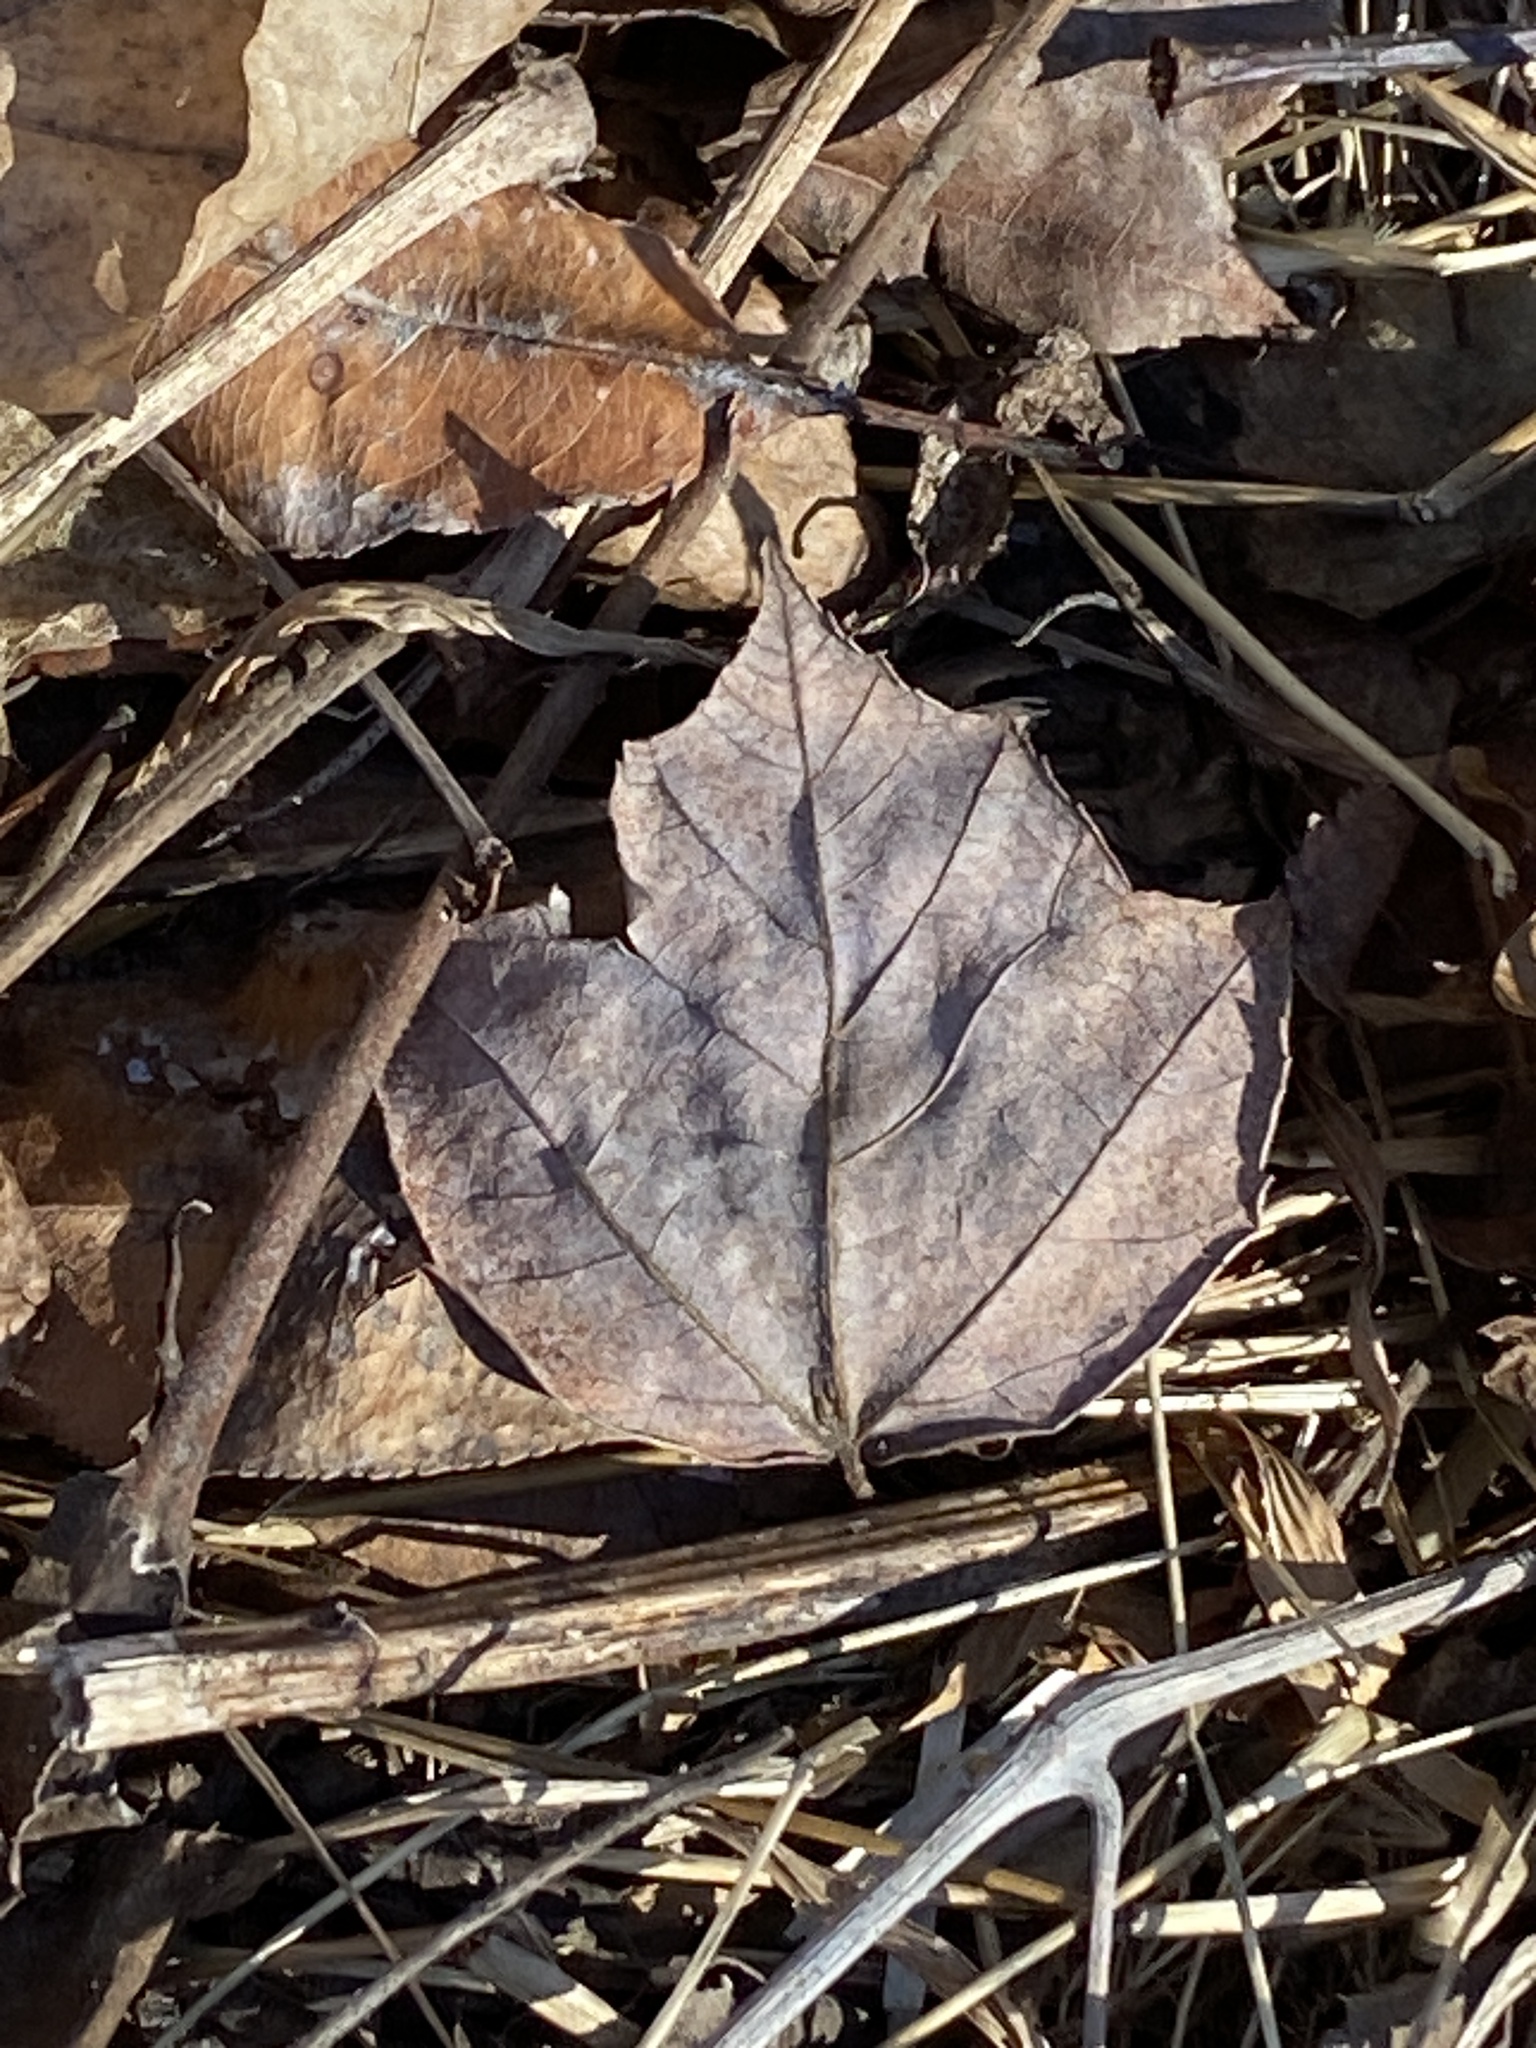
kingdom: Plantae
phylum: Tracheophyta
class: Magnoliopsida
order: Sapindales
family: Sapindaceae
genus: Acer
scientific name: Acer rubrum
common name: Red maple
